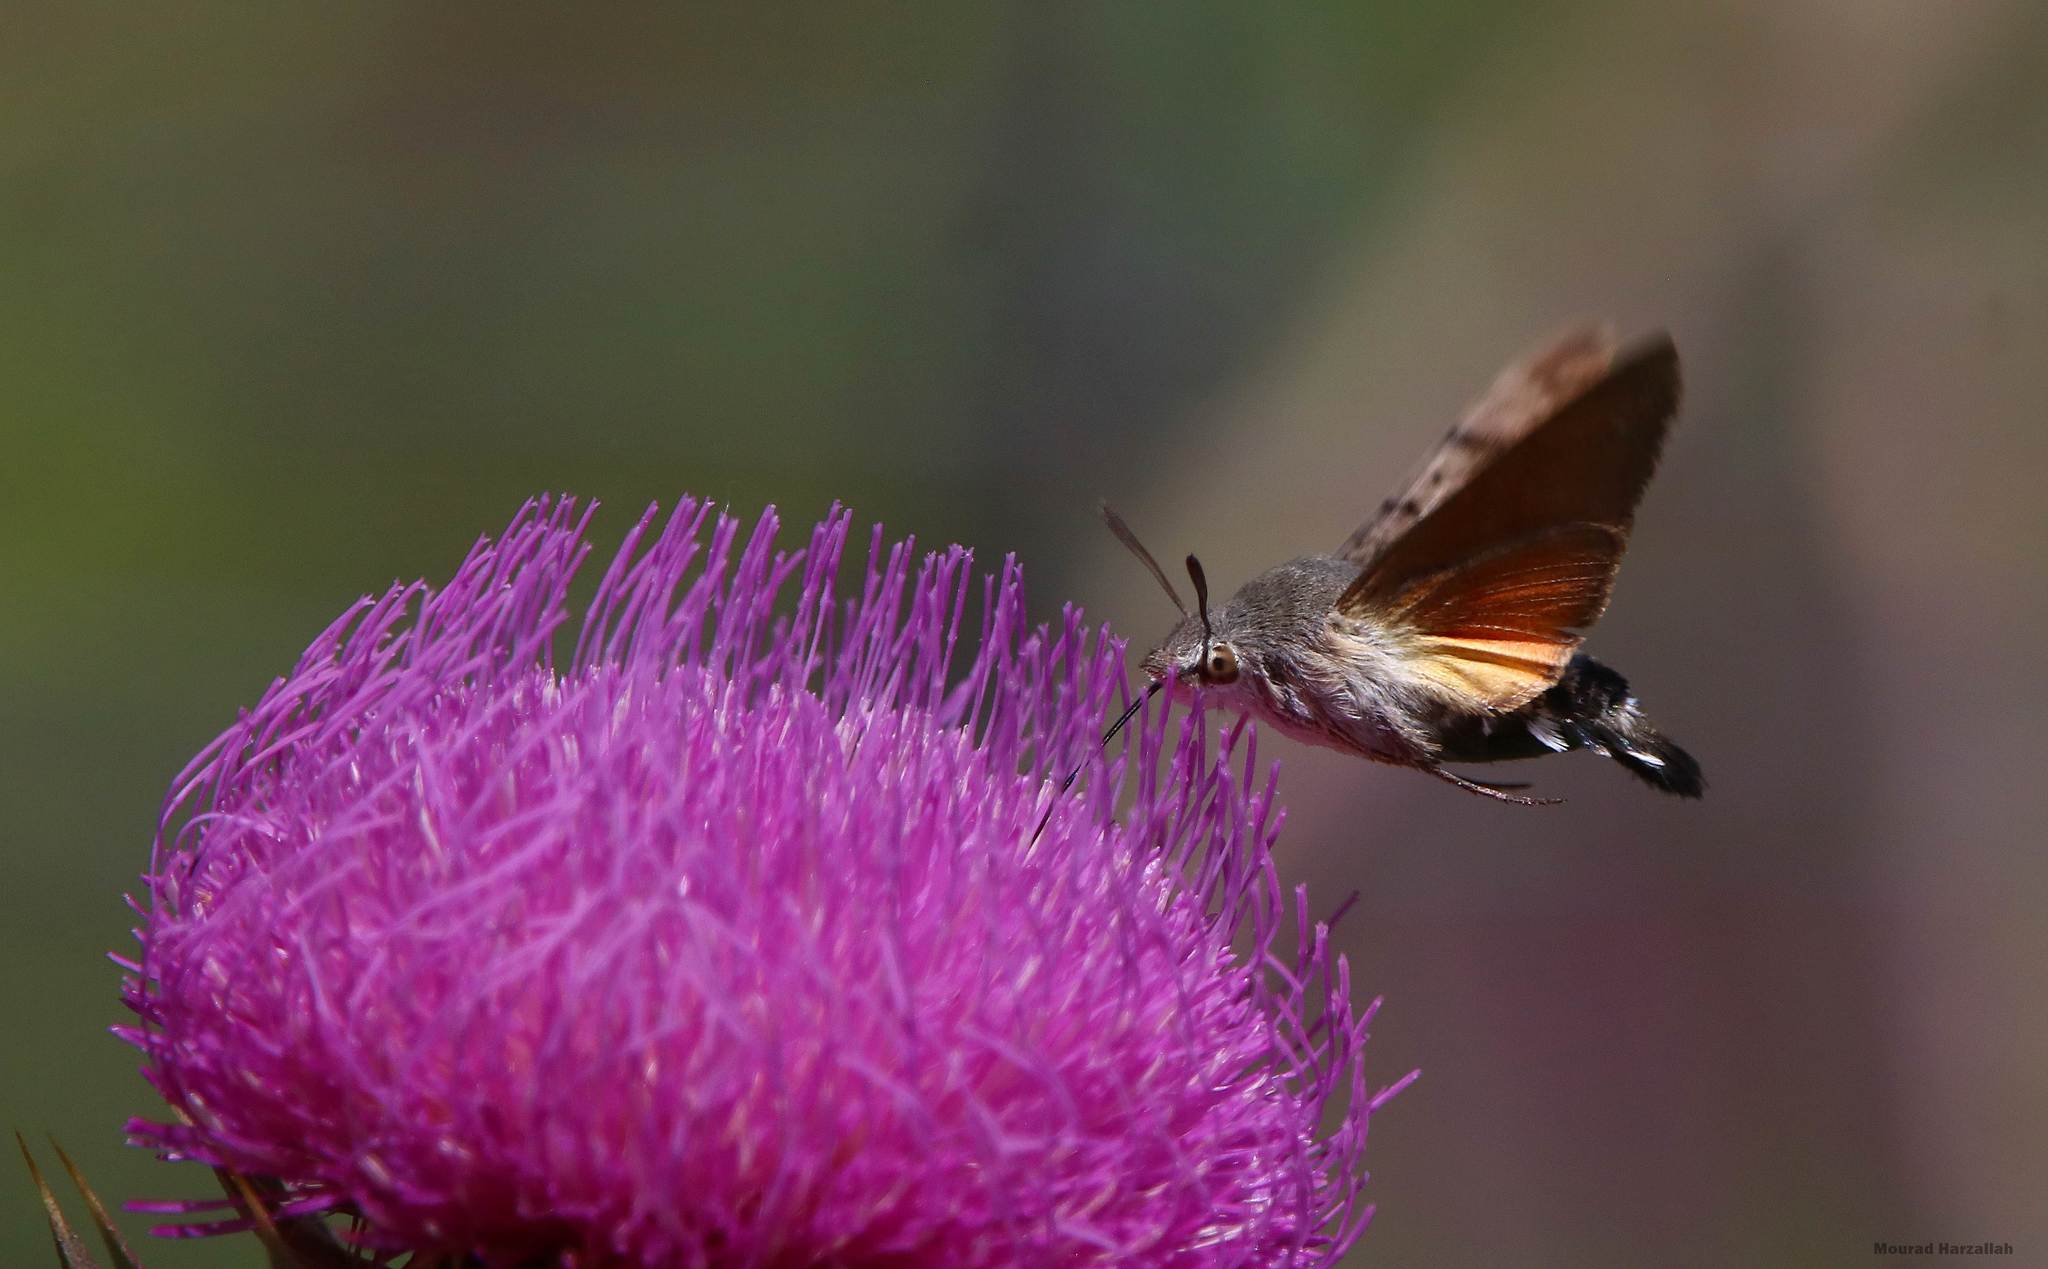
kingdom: Animalia
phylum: Arthropoda
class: Insecta
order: Lepidoptera
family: Sphingidae
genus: Macroglossum
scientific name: Macroglossum stellatarum
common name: Humming-bird hawk-moth
